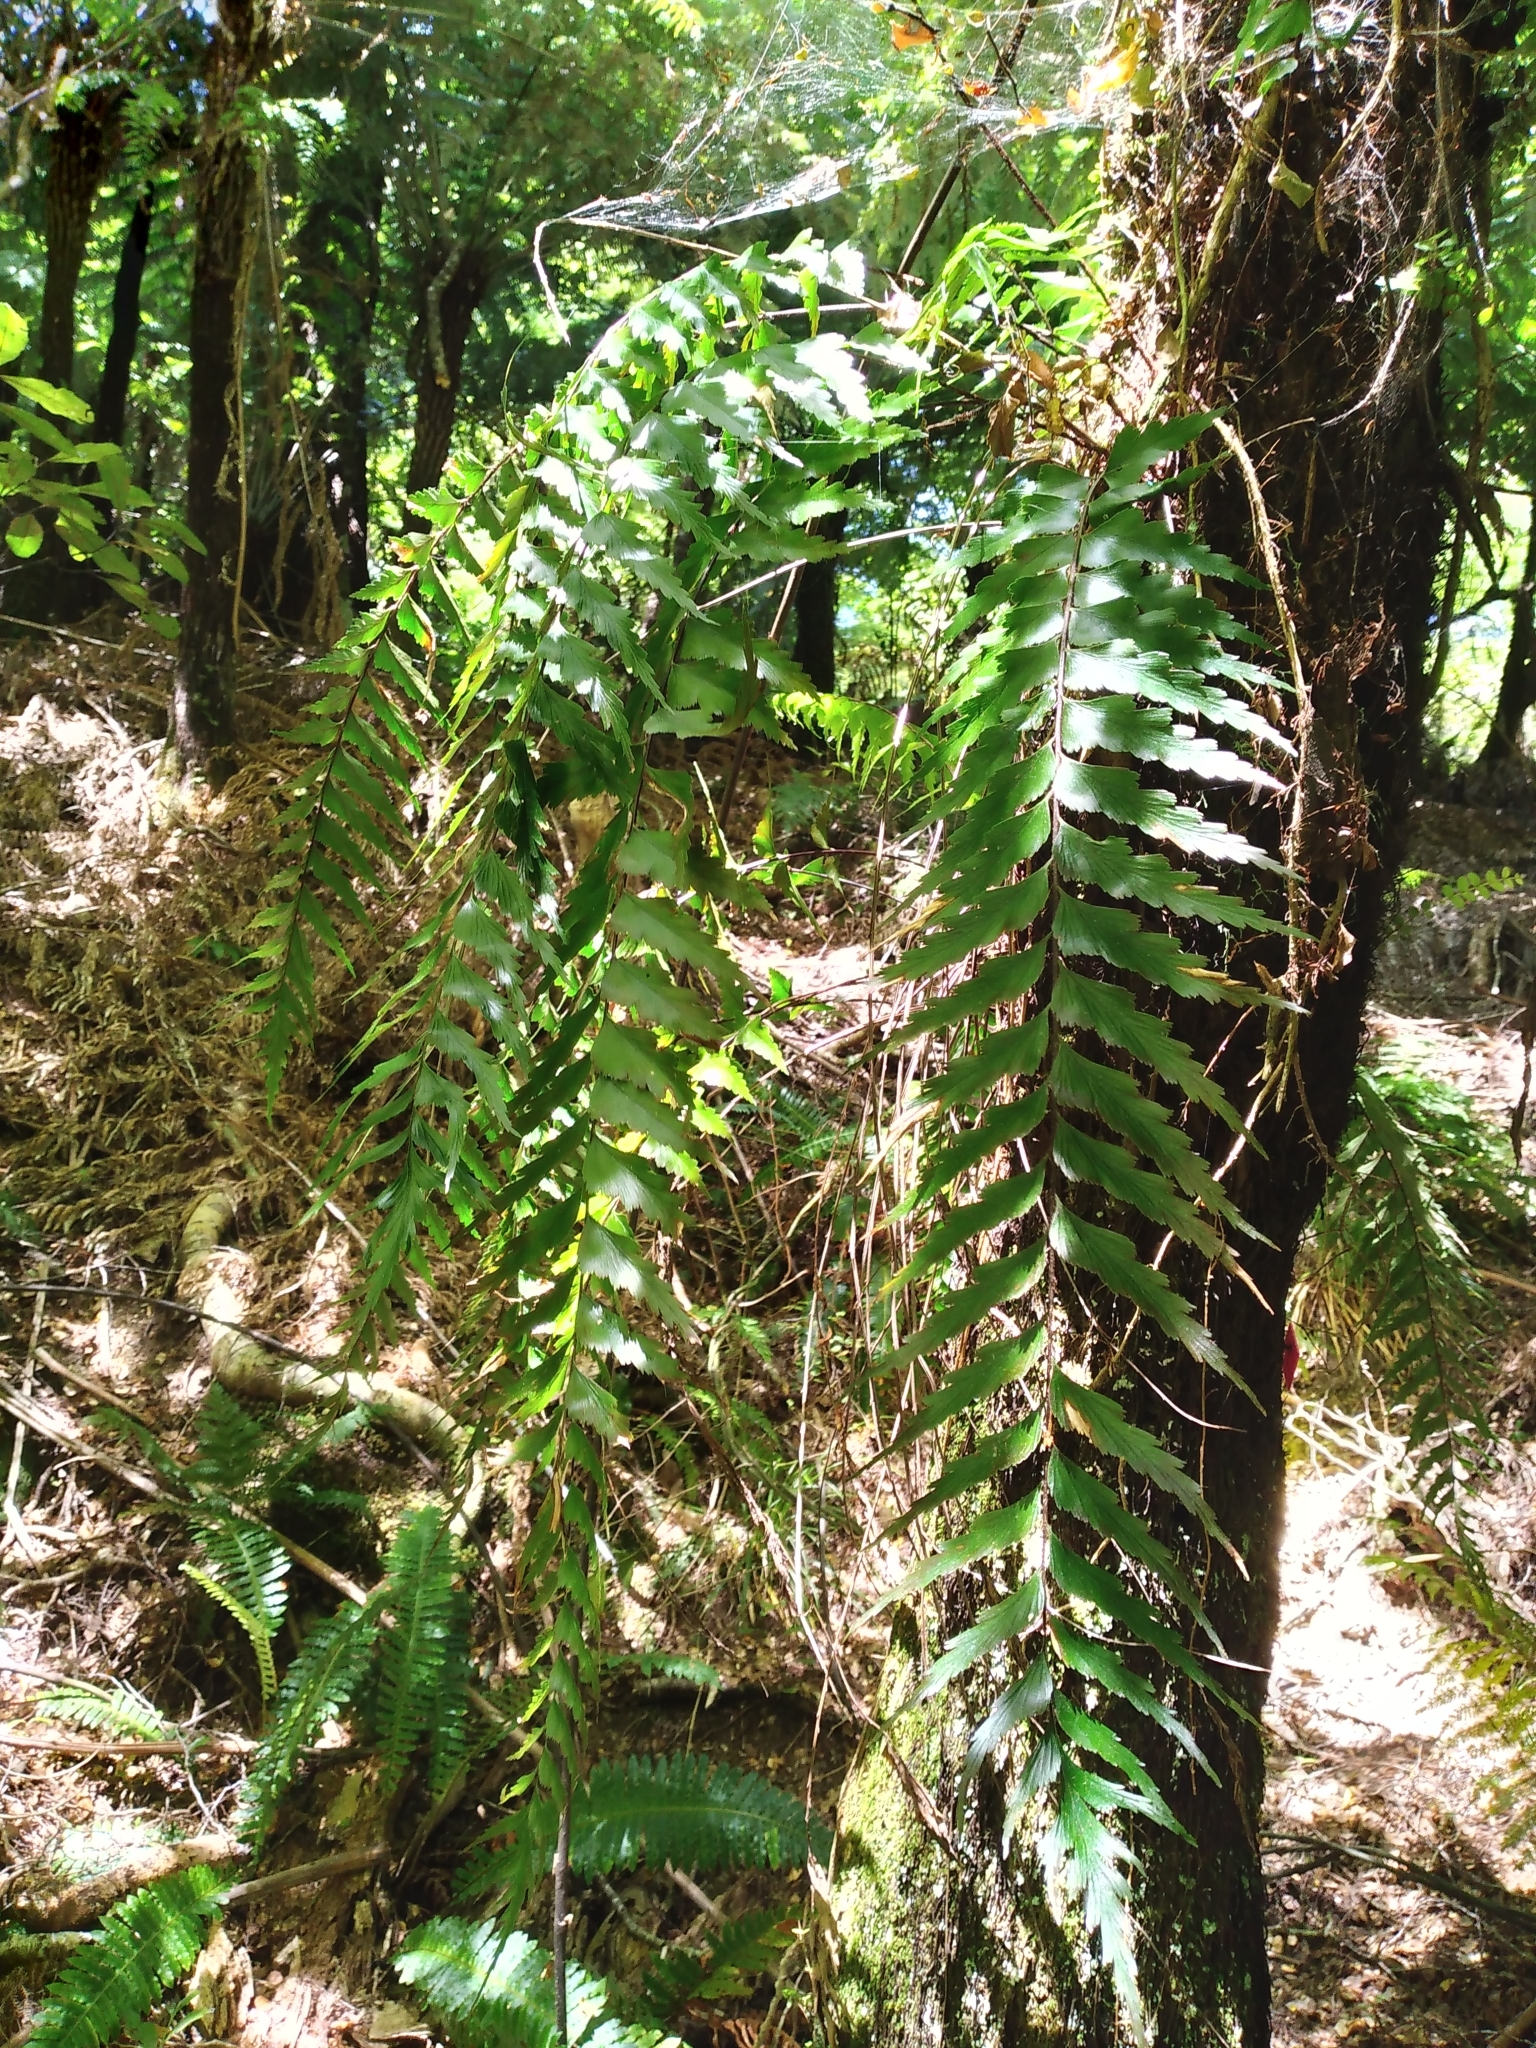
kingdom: Plantae
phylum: Tracheophyta
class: Polypodiopsida
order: Polypodiales
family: Aspleniaceae
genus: Asplenium
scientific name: Asplenium polyodon
